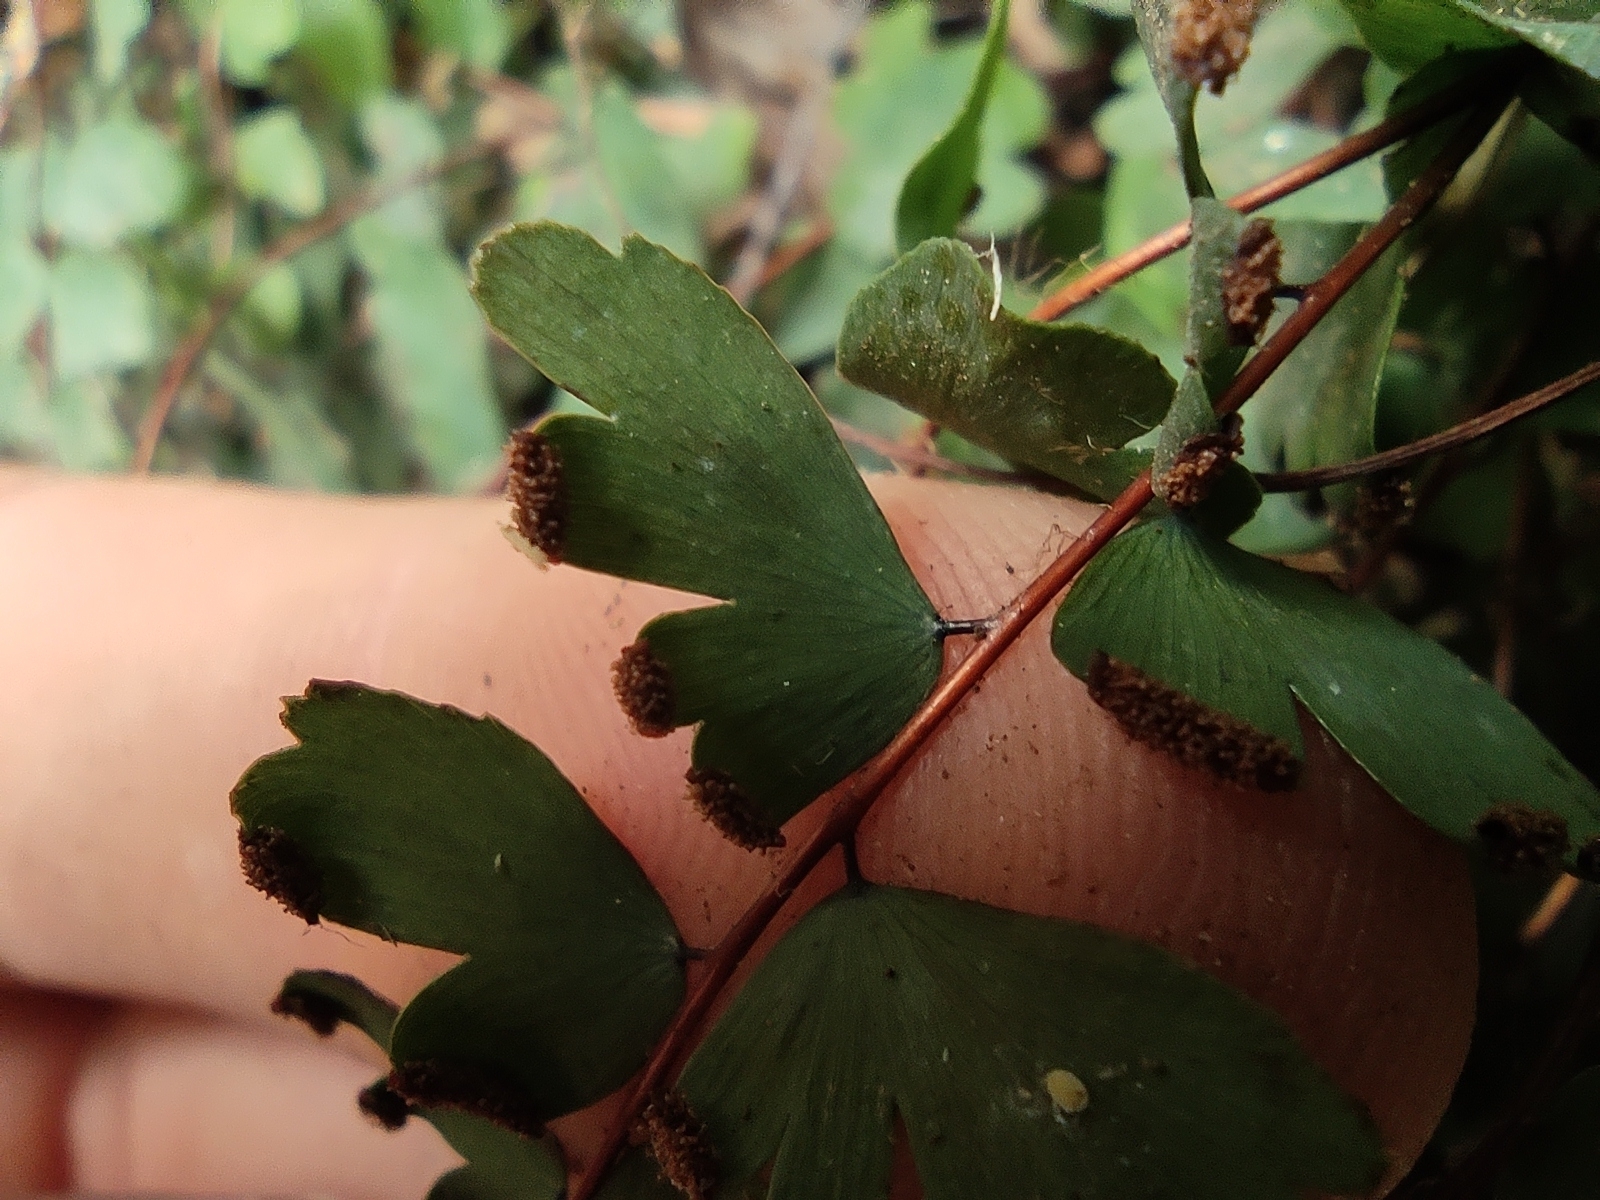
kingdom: Plantae
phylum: Tracheophyta
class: Polypodiopsida
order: Polypodiales
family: Pteridaceae
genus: Adiantum
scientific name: Adiantum rhizophorum
